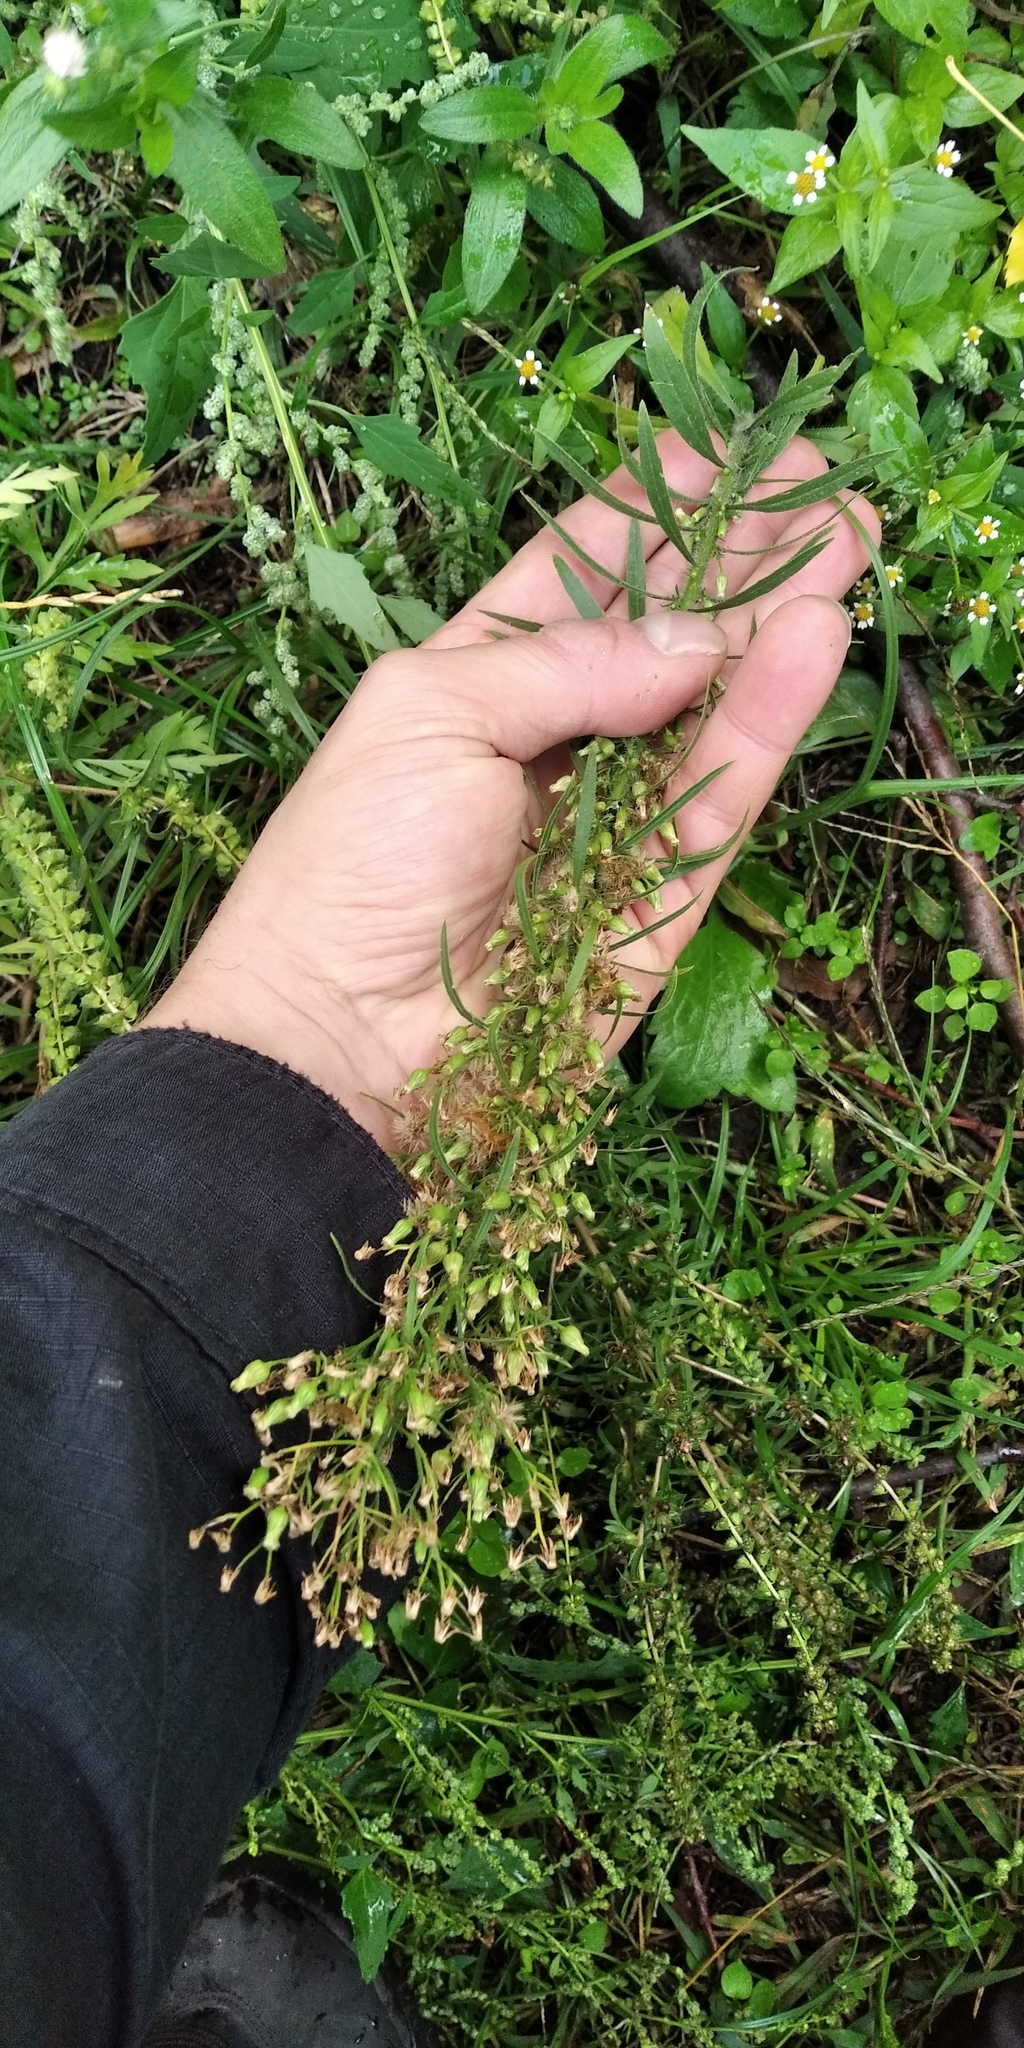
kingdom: Plantae
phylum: Tracheophyta
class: Magnoliopsida
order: Asterales
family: Asteraceae
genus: Erigeron
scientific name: Erigeron canadensis
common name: Canadian fleabane
